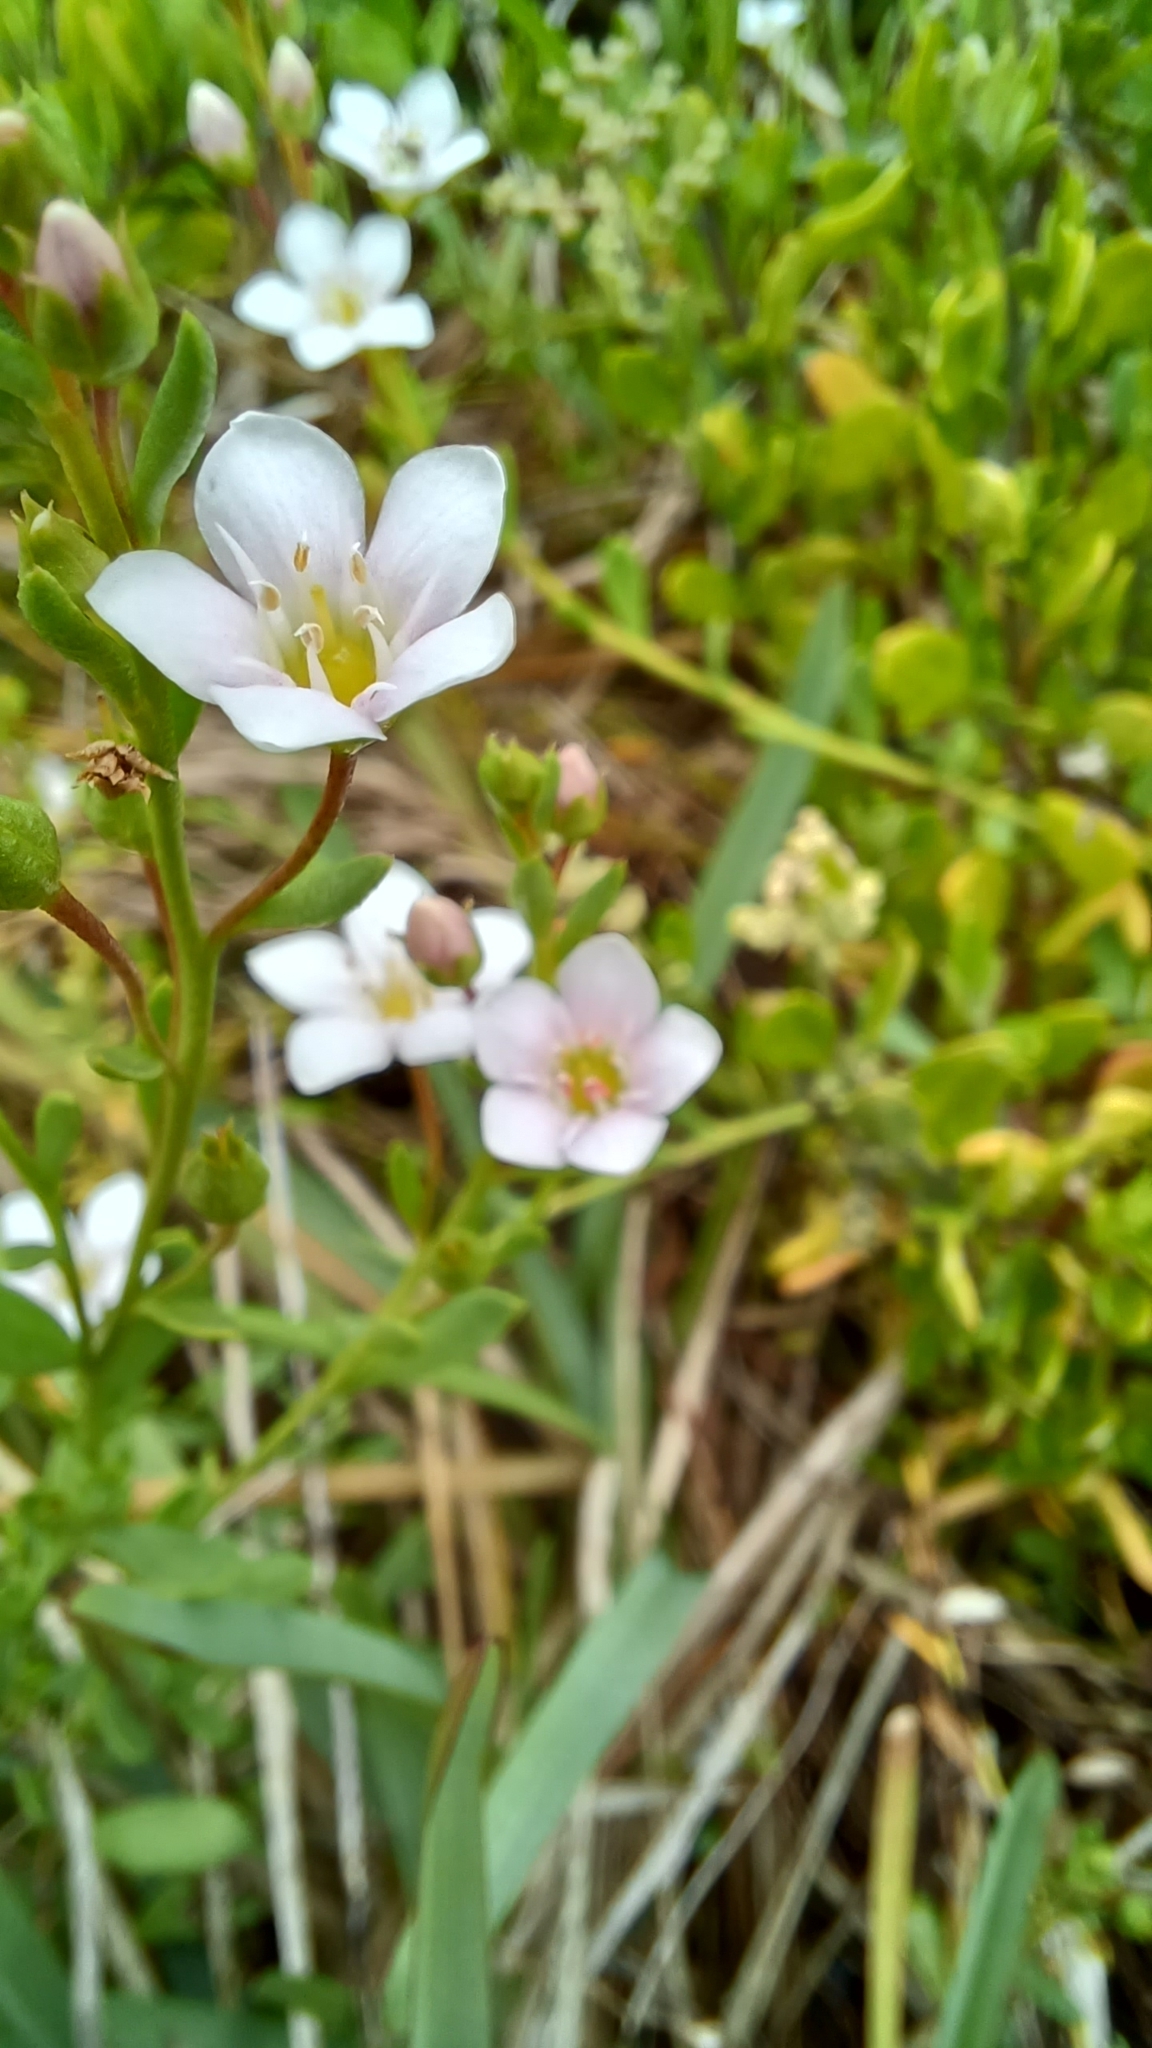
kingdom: Plantae
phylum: Tracheophyta
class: Magnoliopsida
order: Ericales
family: Primulaceae
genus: Samolus
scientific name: Samolus repens
